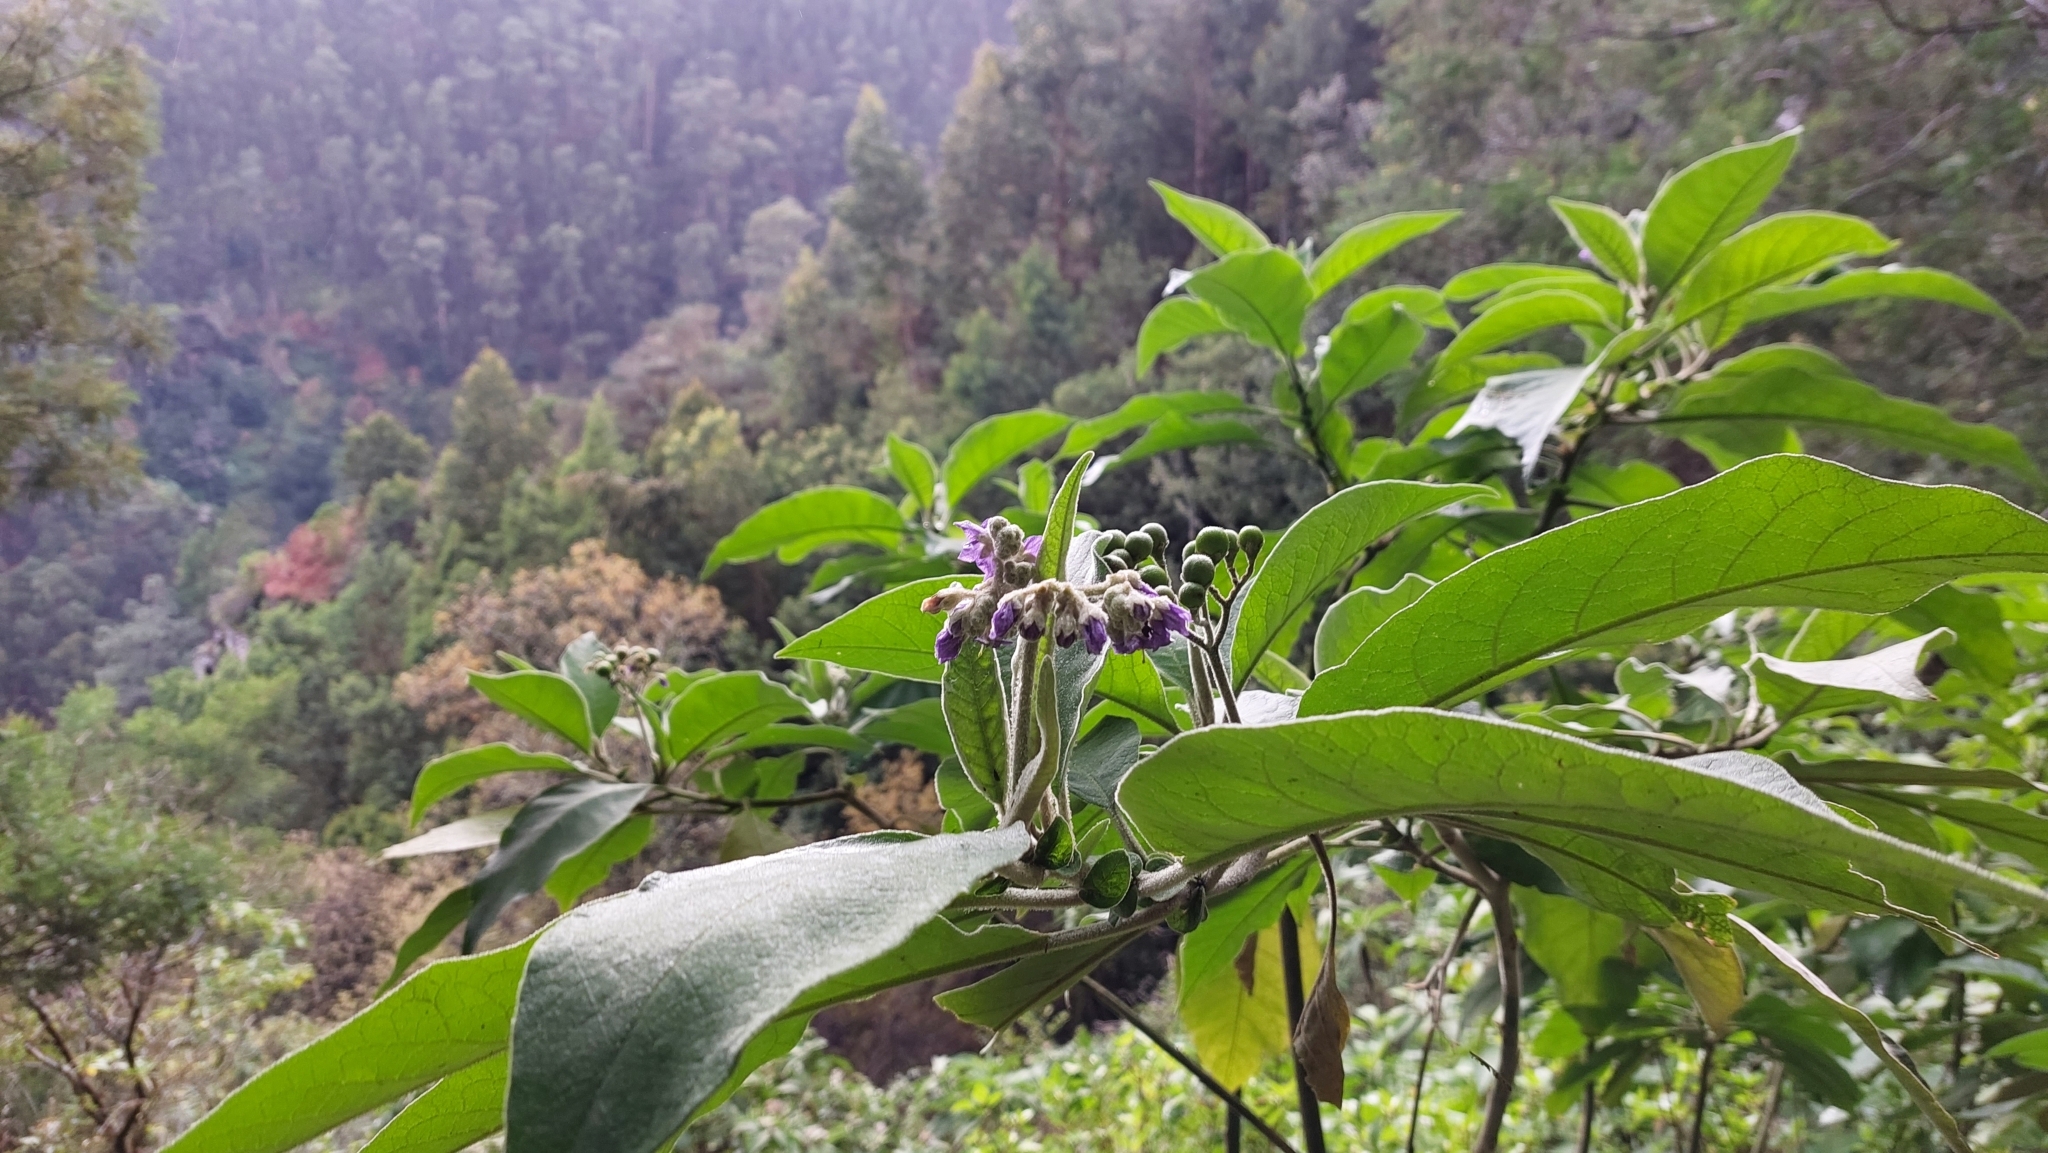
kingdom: Plantae
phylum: Tracheophyta
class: Magnoliopsida
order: Solanales
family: Solanaceae
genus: Solanum
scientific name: Solanum mauritianum
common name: Earleaf nightshade
